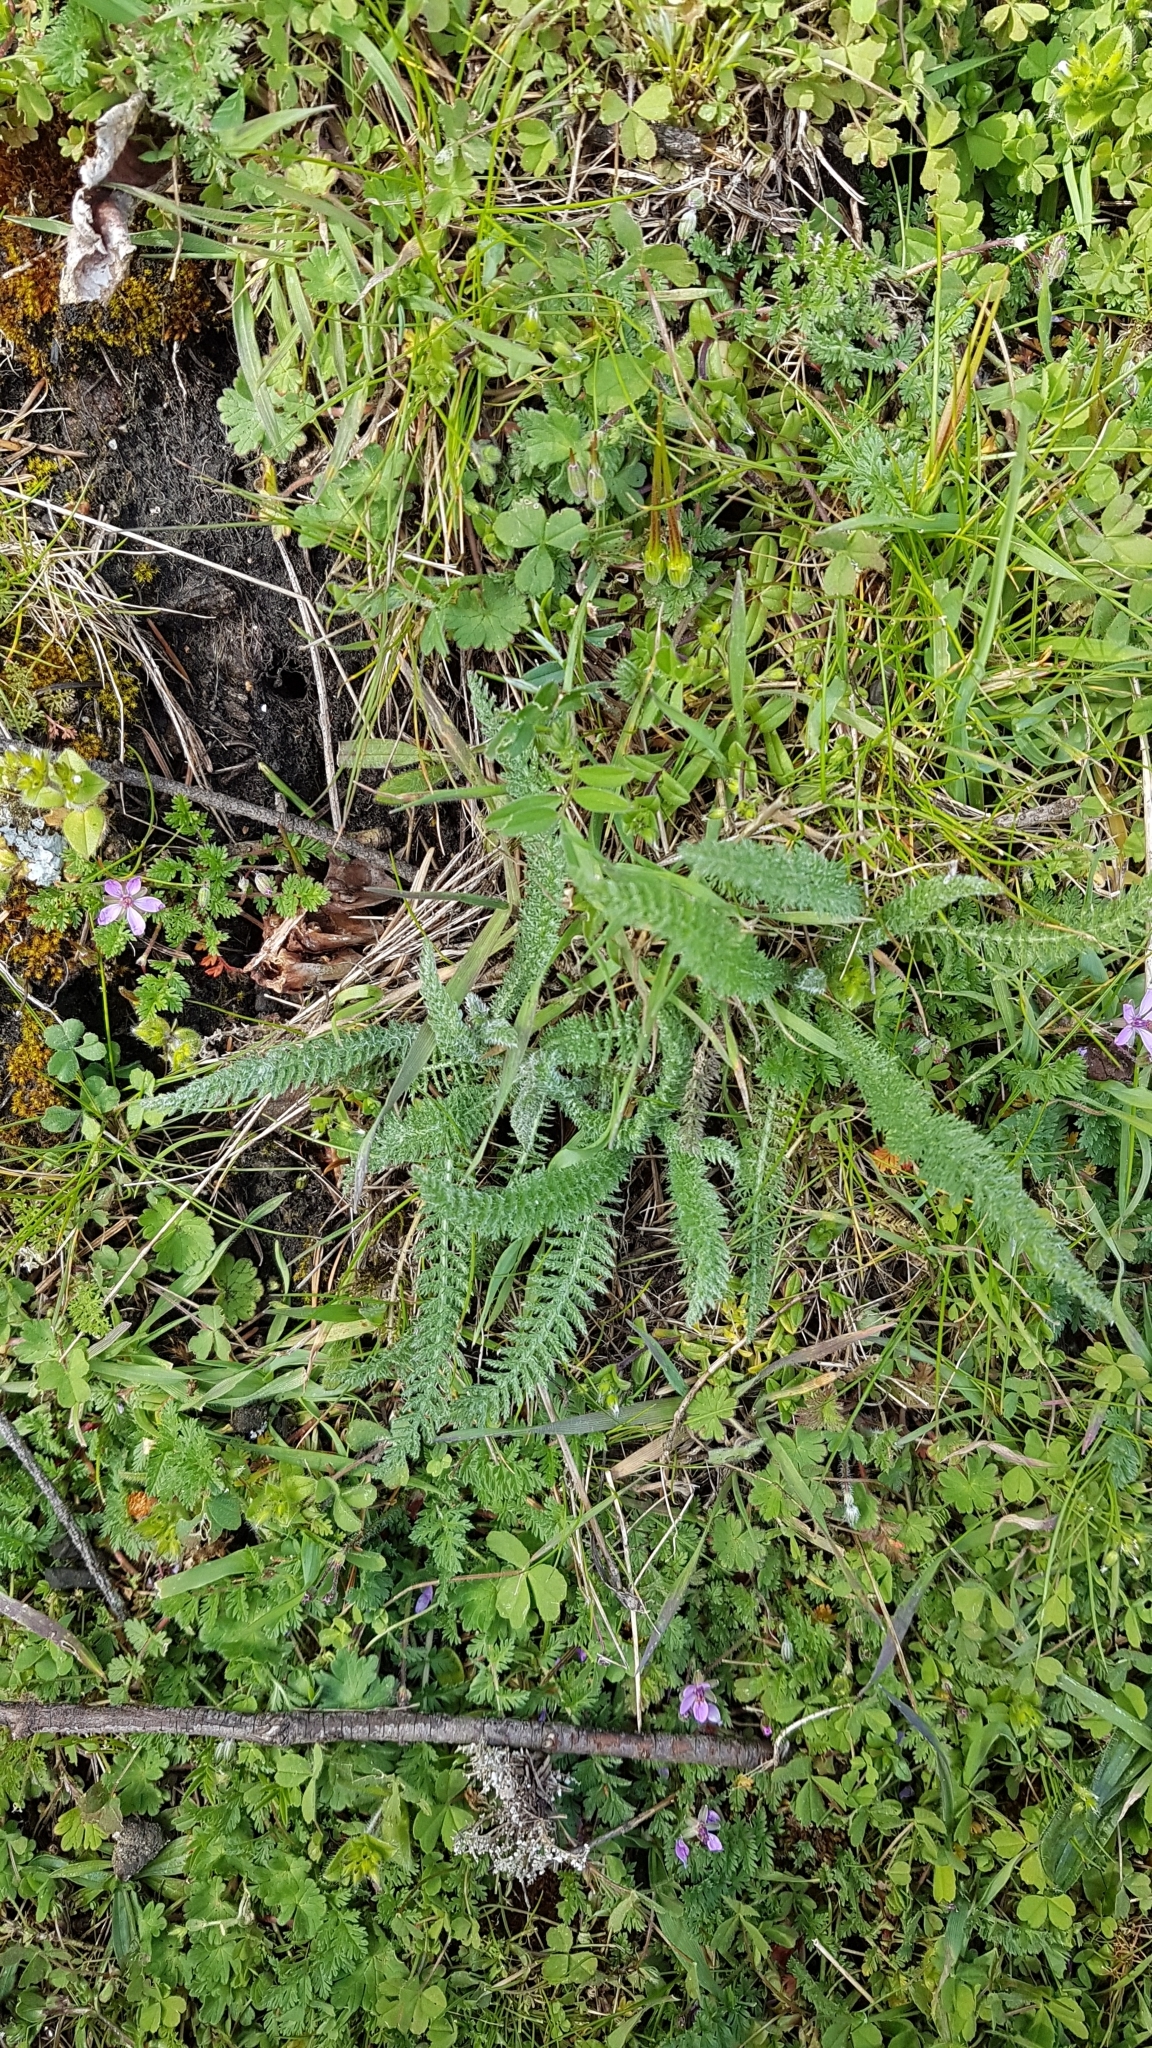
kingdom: Plantae
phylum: Tracheophyta
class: Magnoliopsida
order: Asterales
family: Asteraceae
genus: Achillea
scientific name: Achillea millefolium
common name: Yarrow
